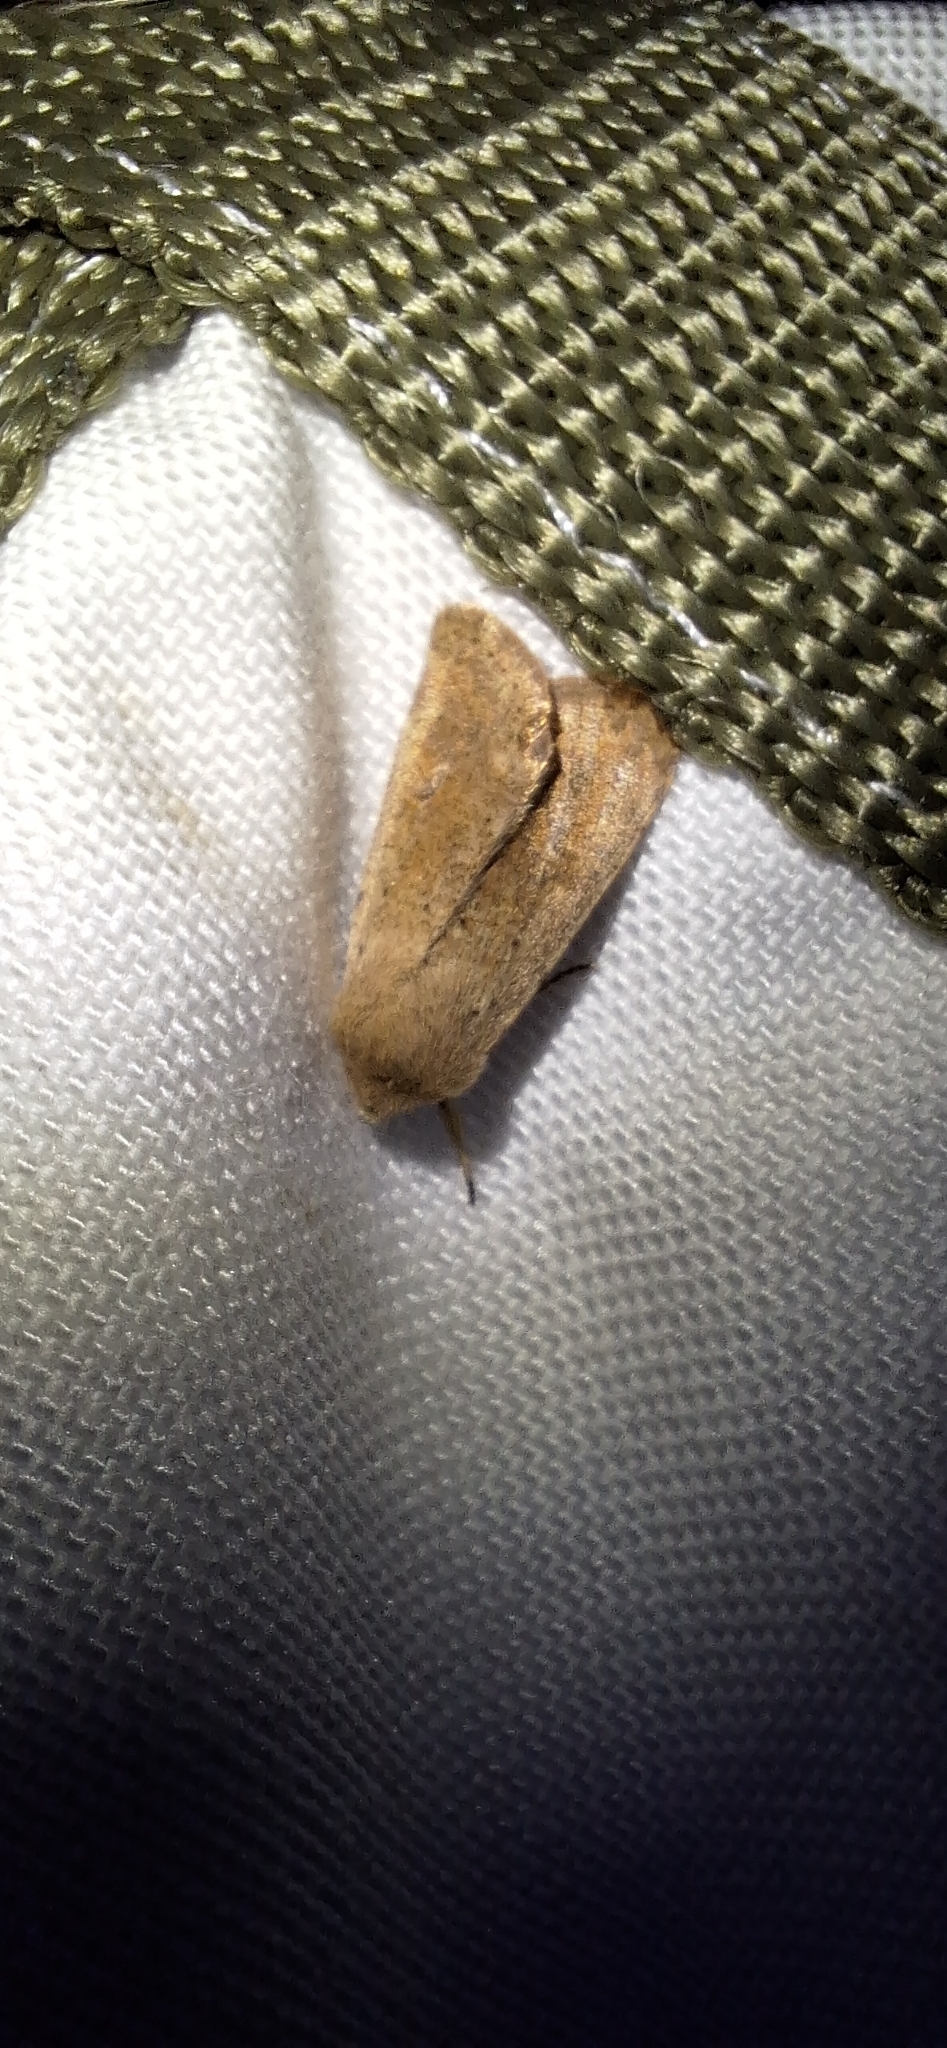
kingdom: Animalia
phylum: Arthropoda
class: Insecta
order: Lepidoptera
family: Noctuidae
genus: Orthosia
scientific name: Orthosia cruda
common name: Small quaker
